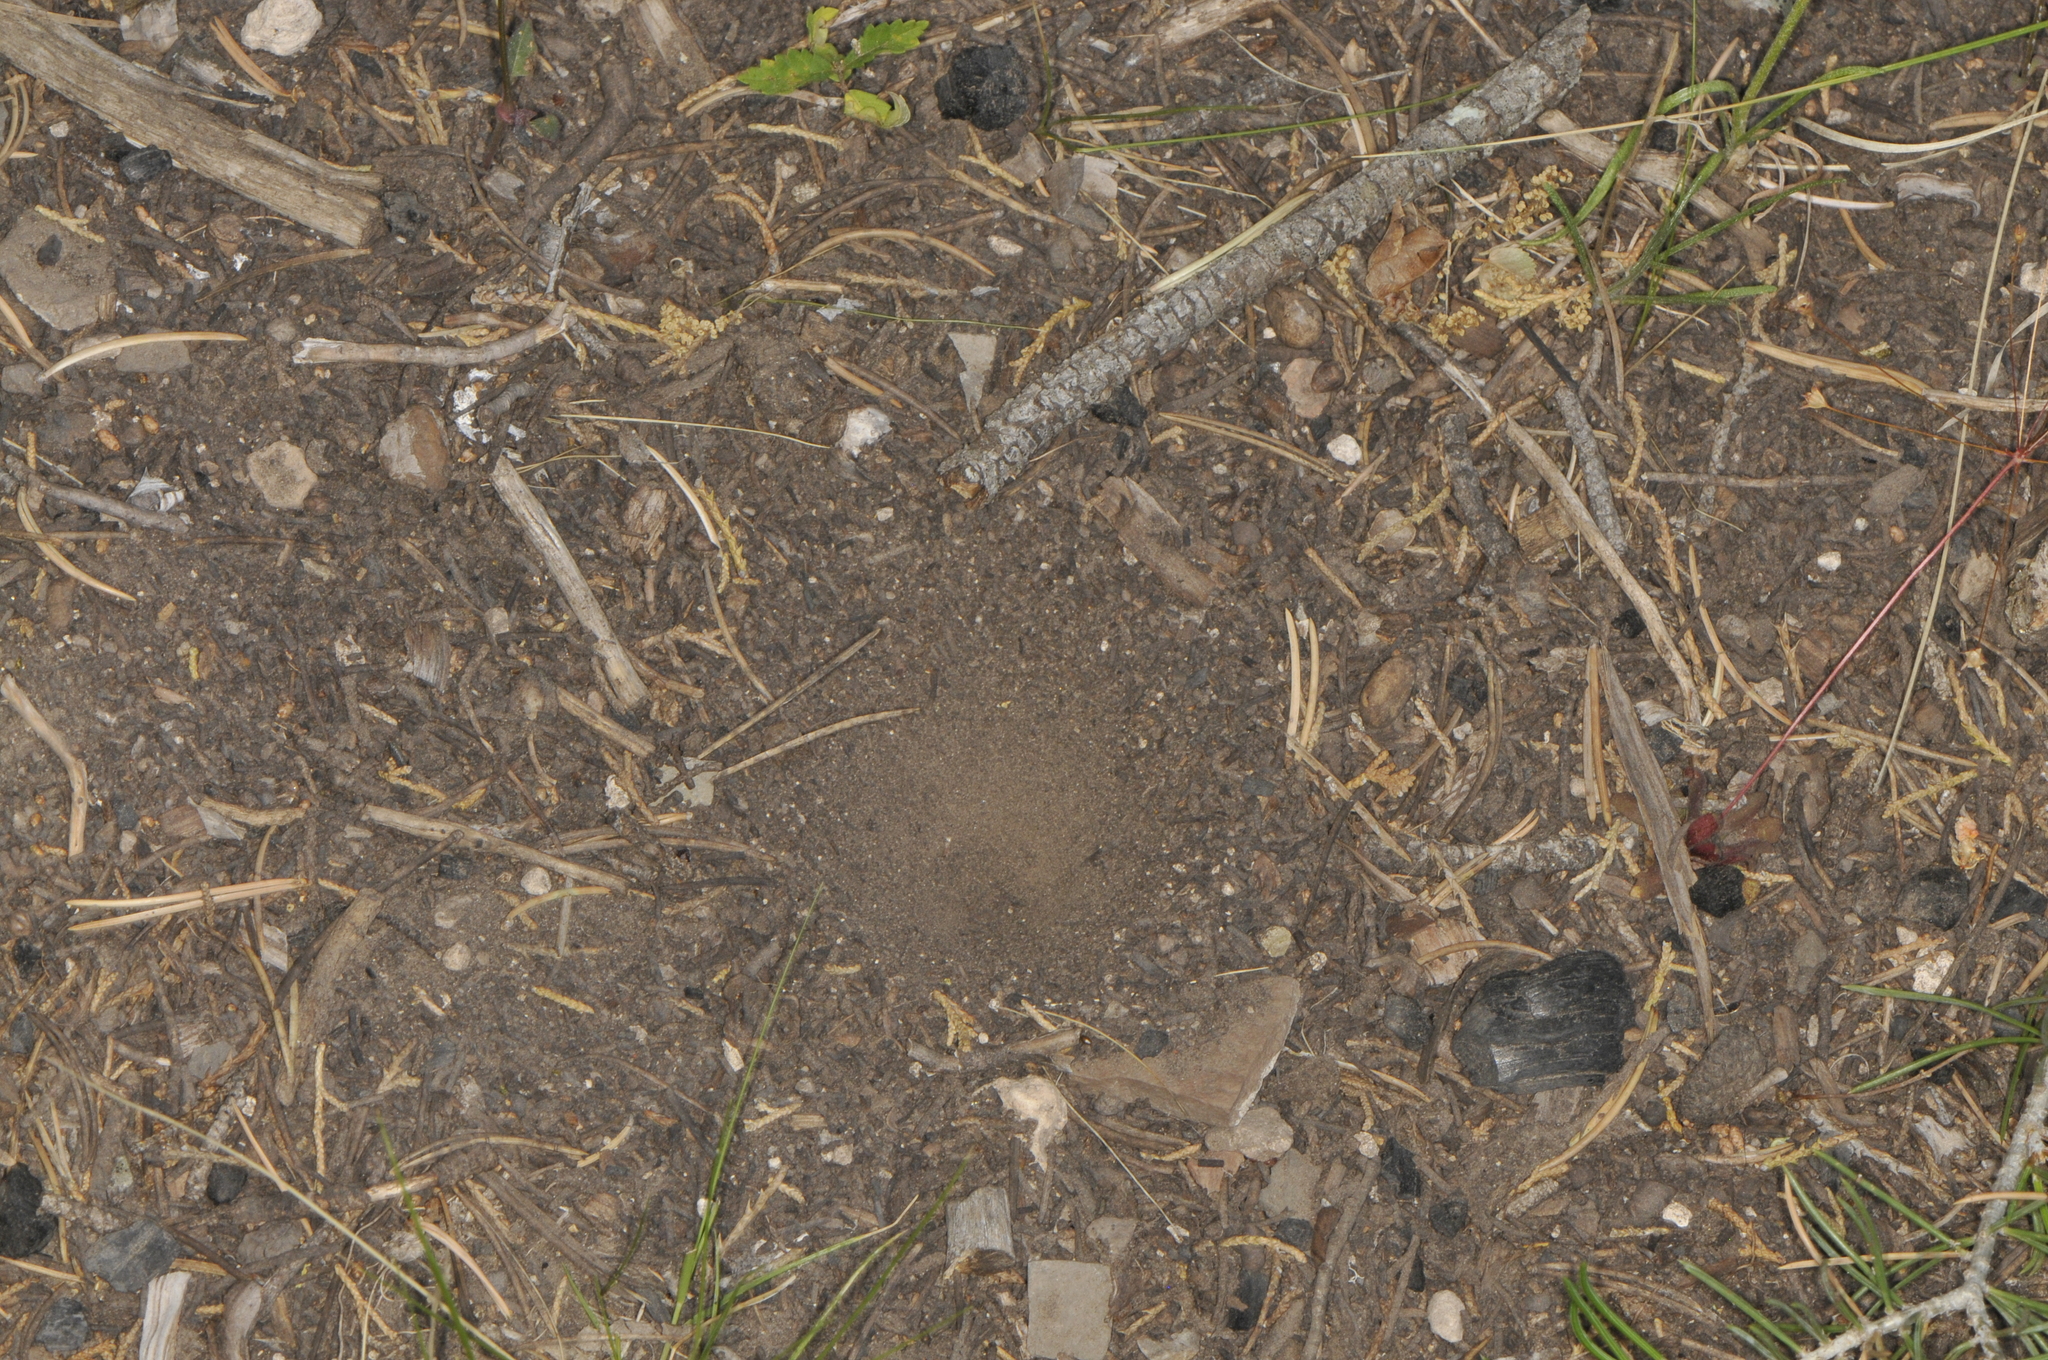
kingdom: Animalia
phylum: Arthropoda
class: Insecta
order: Neuroptera
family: Myrmeleontidae
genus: Myrmeleon
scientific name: Myrmeleon
